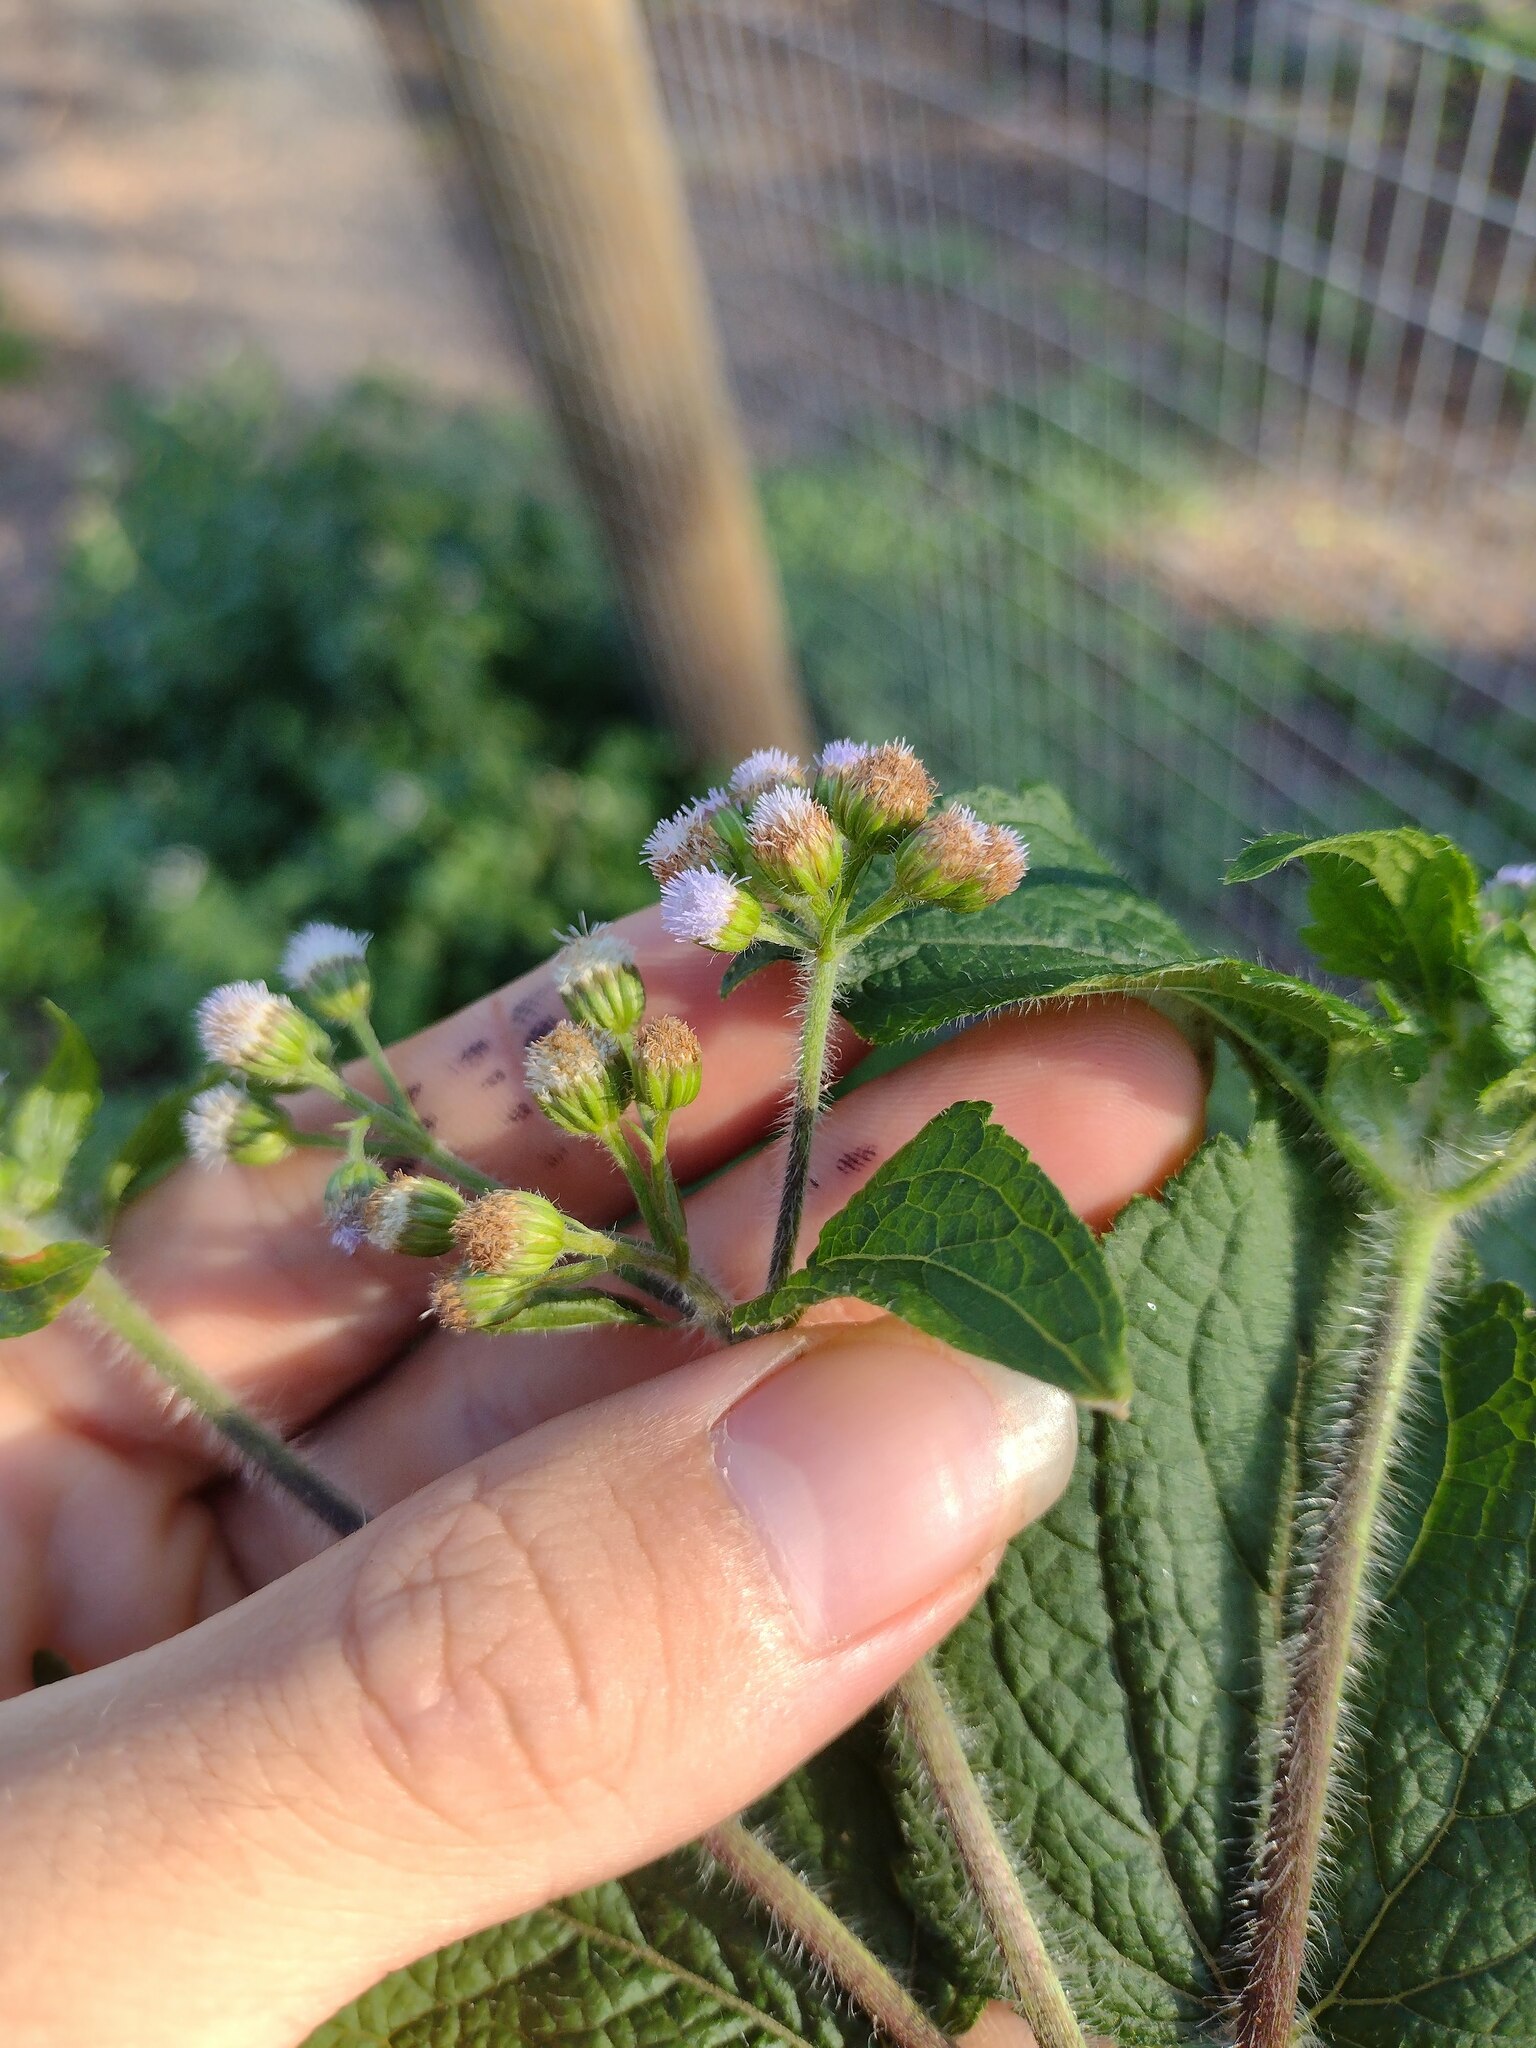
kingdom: Plantae
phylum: Tracheophyta
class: Magnoliopsida
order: Asterales
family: Asteraceae
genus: Ageratum
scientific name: Ageratum conyzoides
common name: Tropical whiteweed
